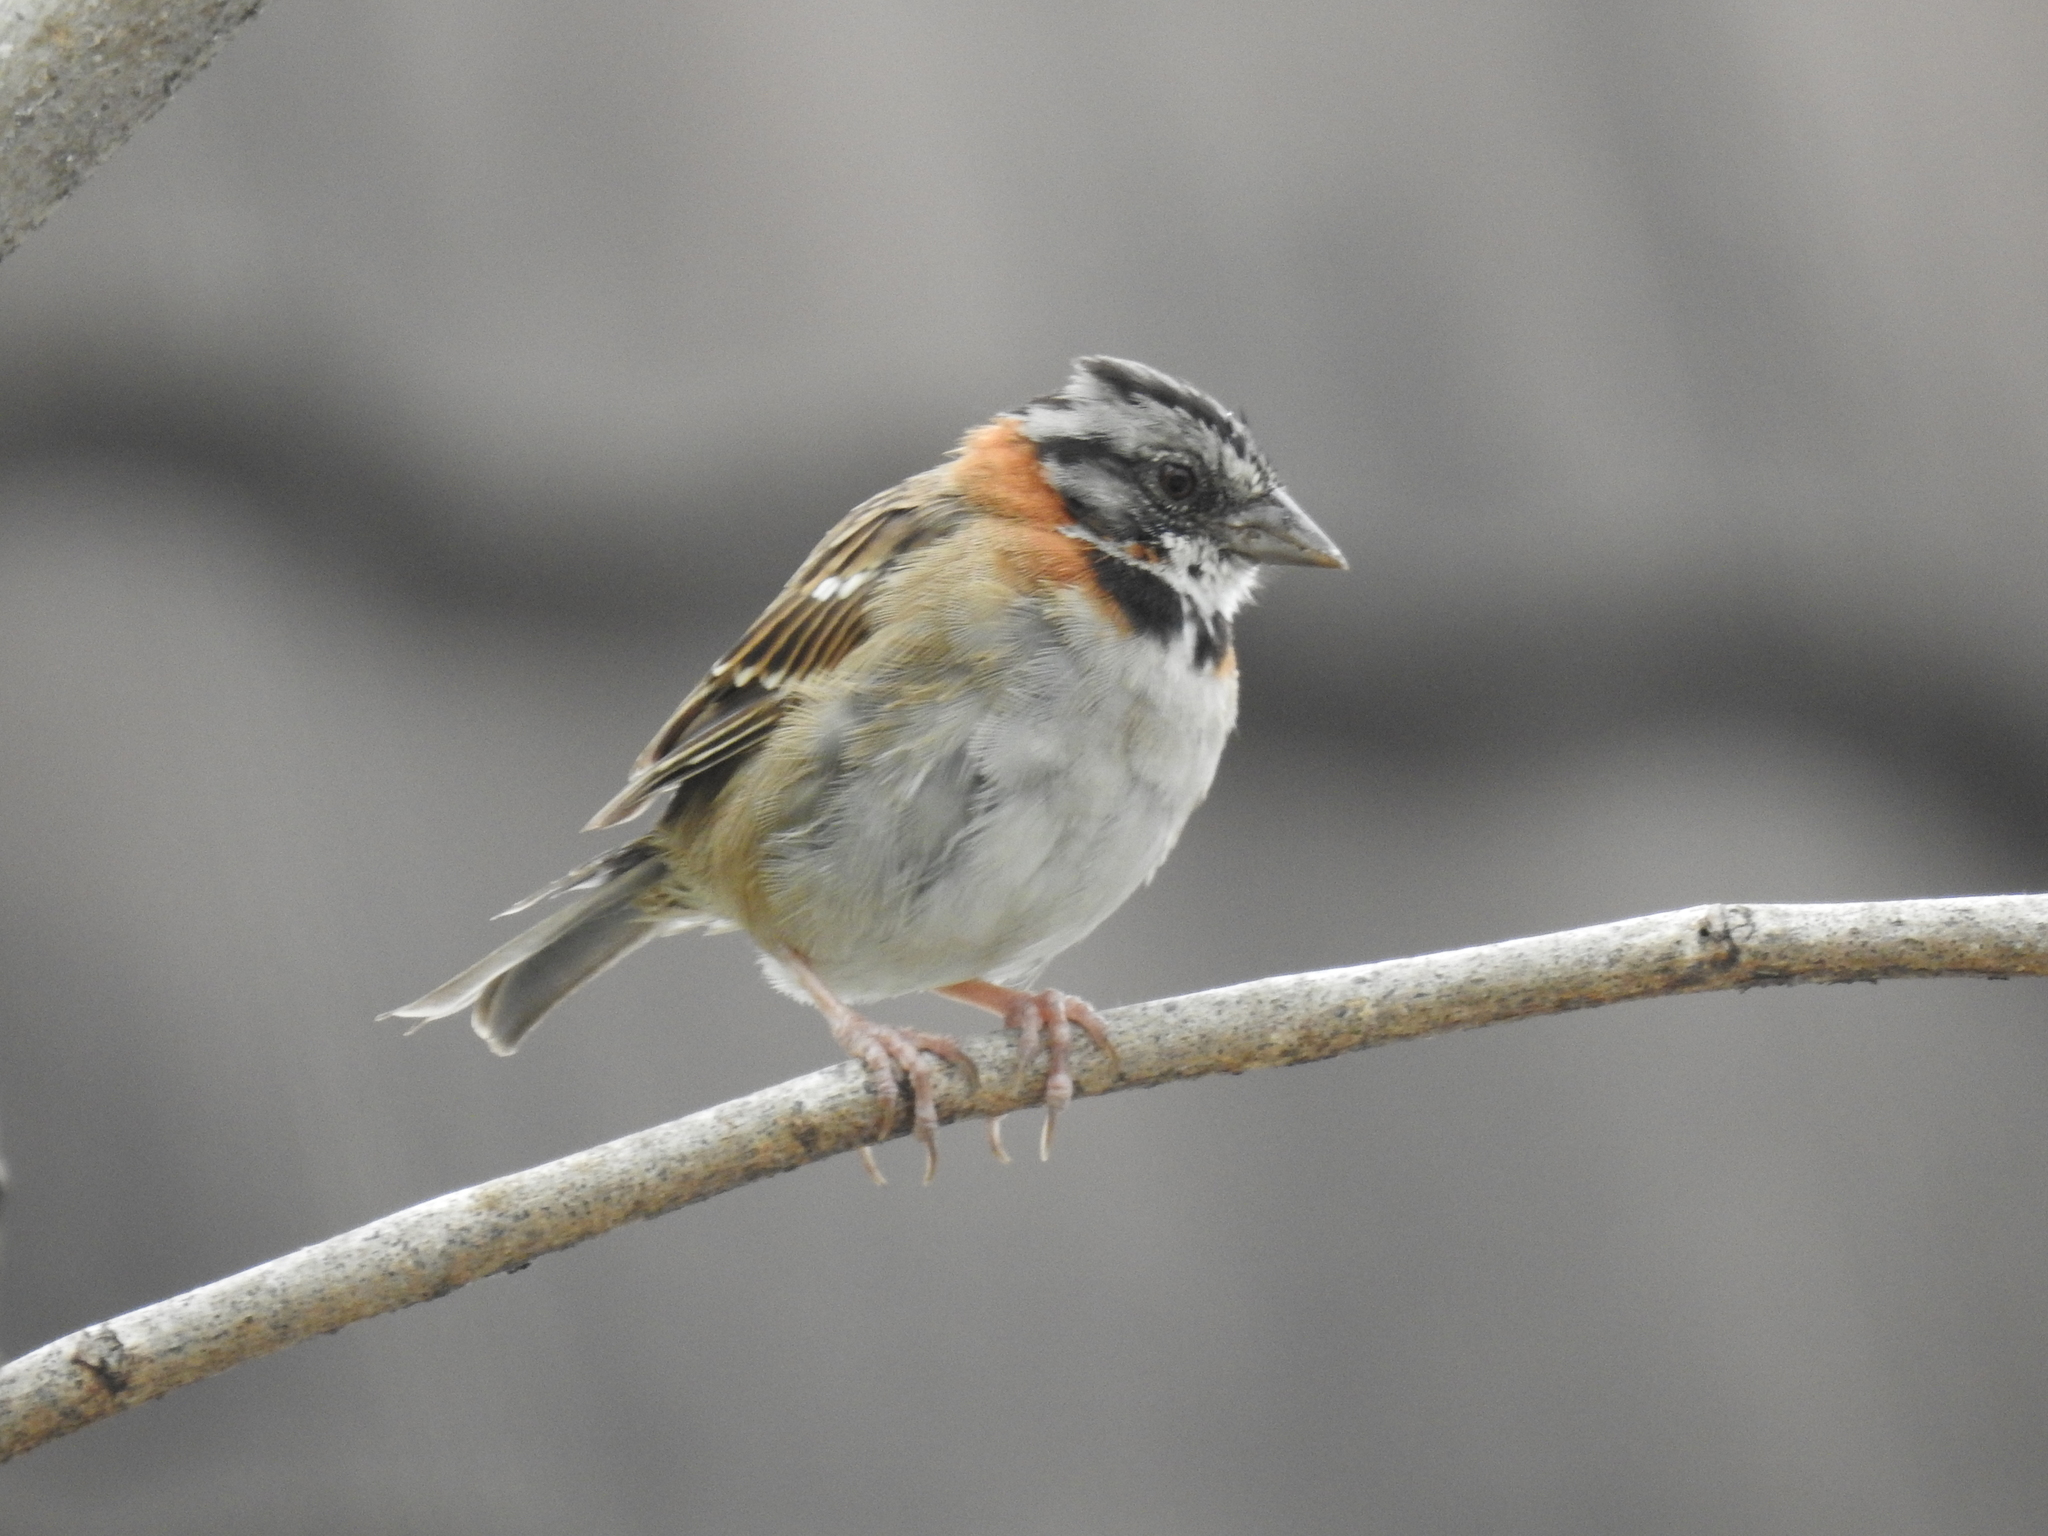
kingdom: Animalia
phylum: Chordata
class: Aves
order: Passeriformes
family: Passerellidae
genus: Zonotrichia
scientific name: Zonotrichia capensis
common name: Rufous-collared sparrow
